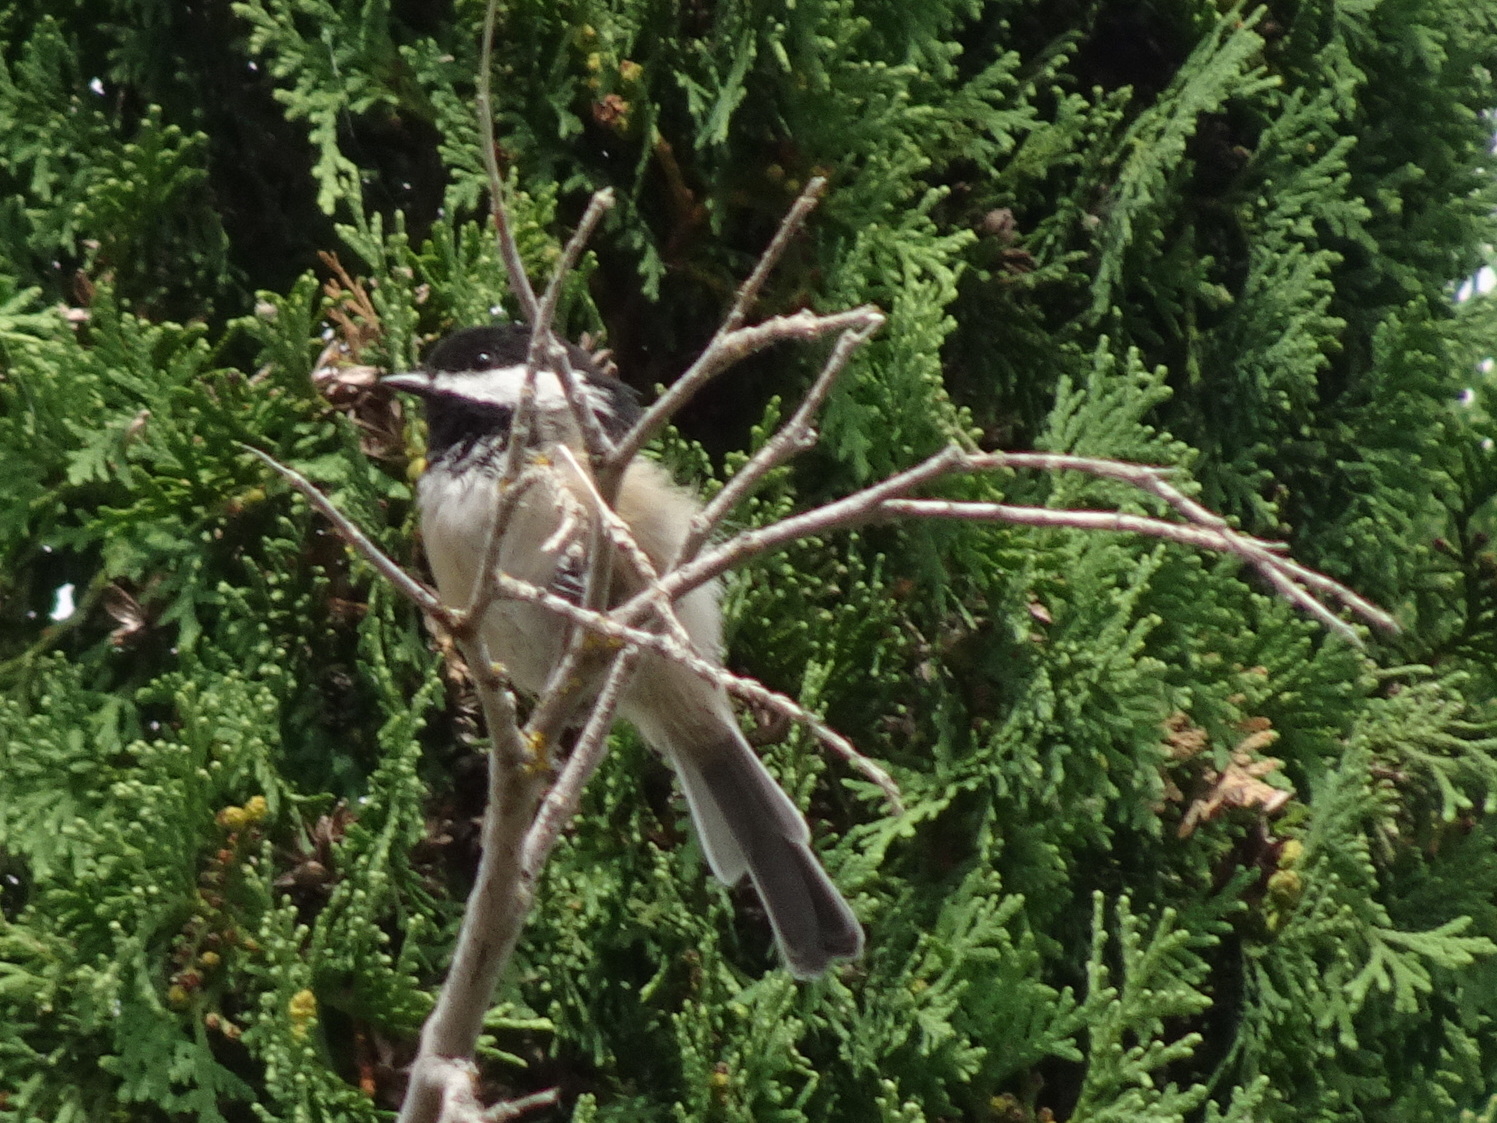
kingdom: Animalia
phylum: Chordata
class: Aves
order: Passeriformes
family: Paridae
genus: Poecile
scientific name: Poecile atricapillus
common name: Black-capped chickadee
